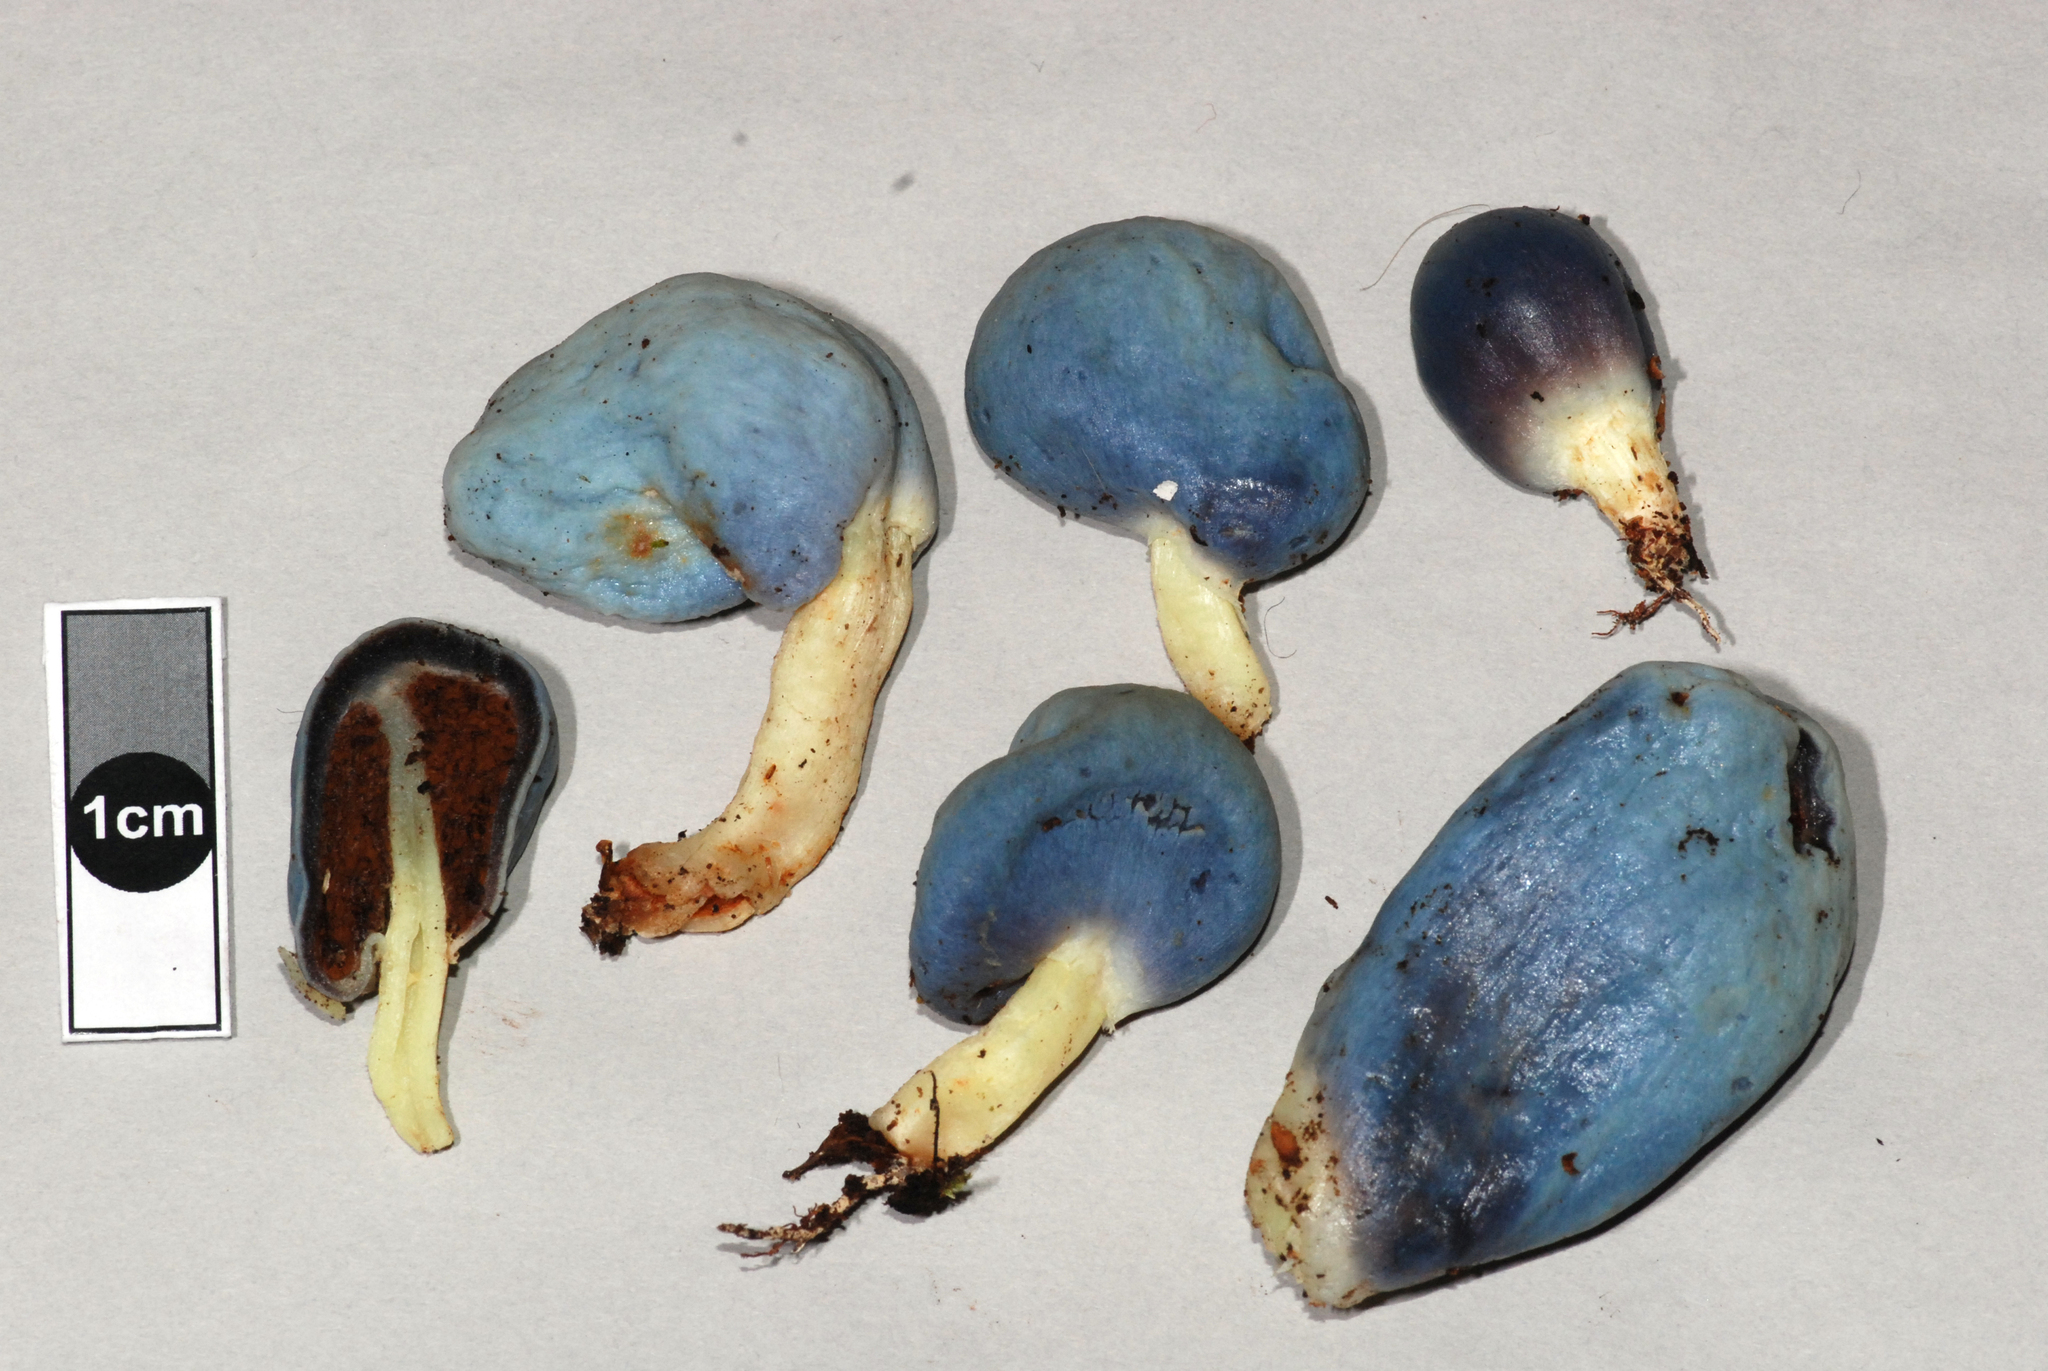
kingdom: Fungi
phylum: Basidiomycota
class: Agaricomycetes
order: Agaricales
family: Agaricaceae
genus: Clavogaster
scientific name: Clavogaster virescens
